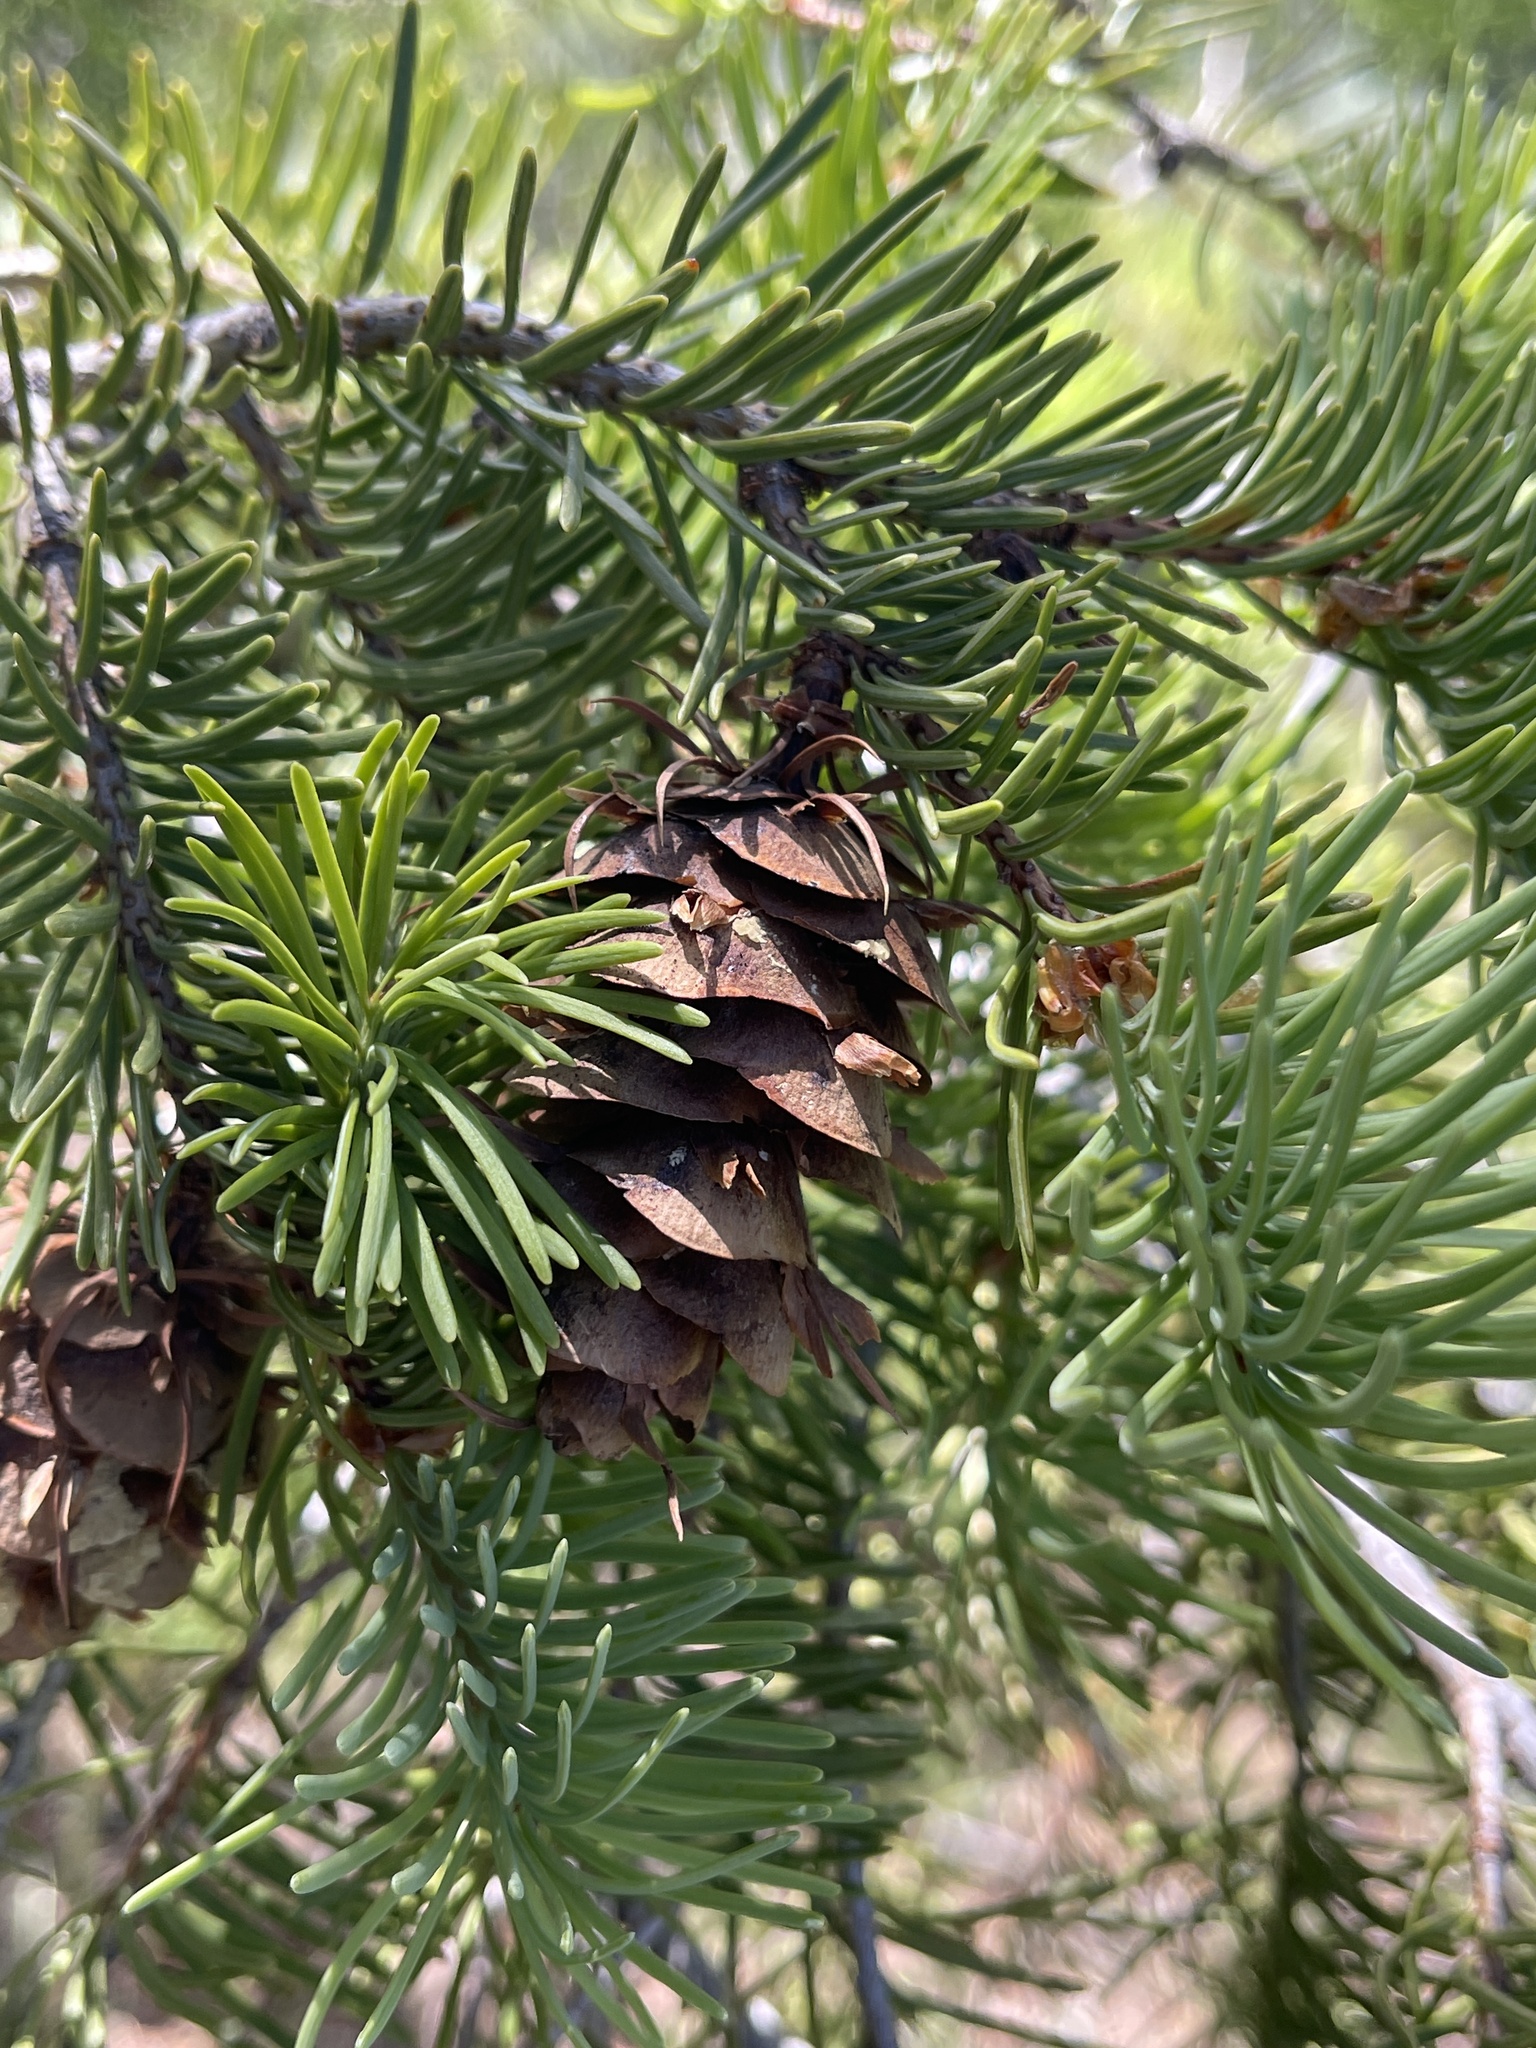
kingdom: Plantae
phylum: Tracheophyta
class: Pinopsida
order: Pinales
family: Pinaceae
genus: Pseudotsuga
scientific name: Pseudotsuga menziesii
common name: Douglas fir
